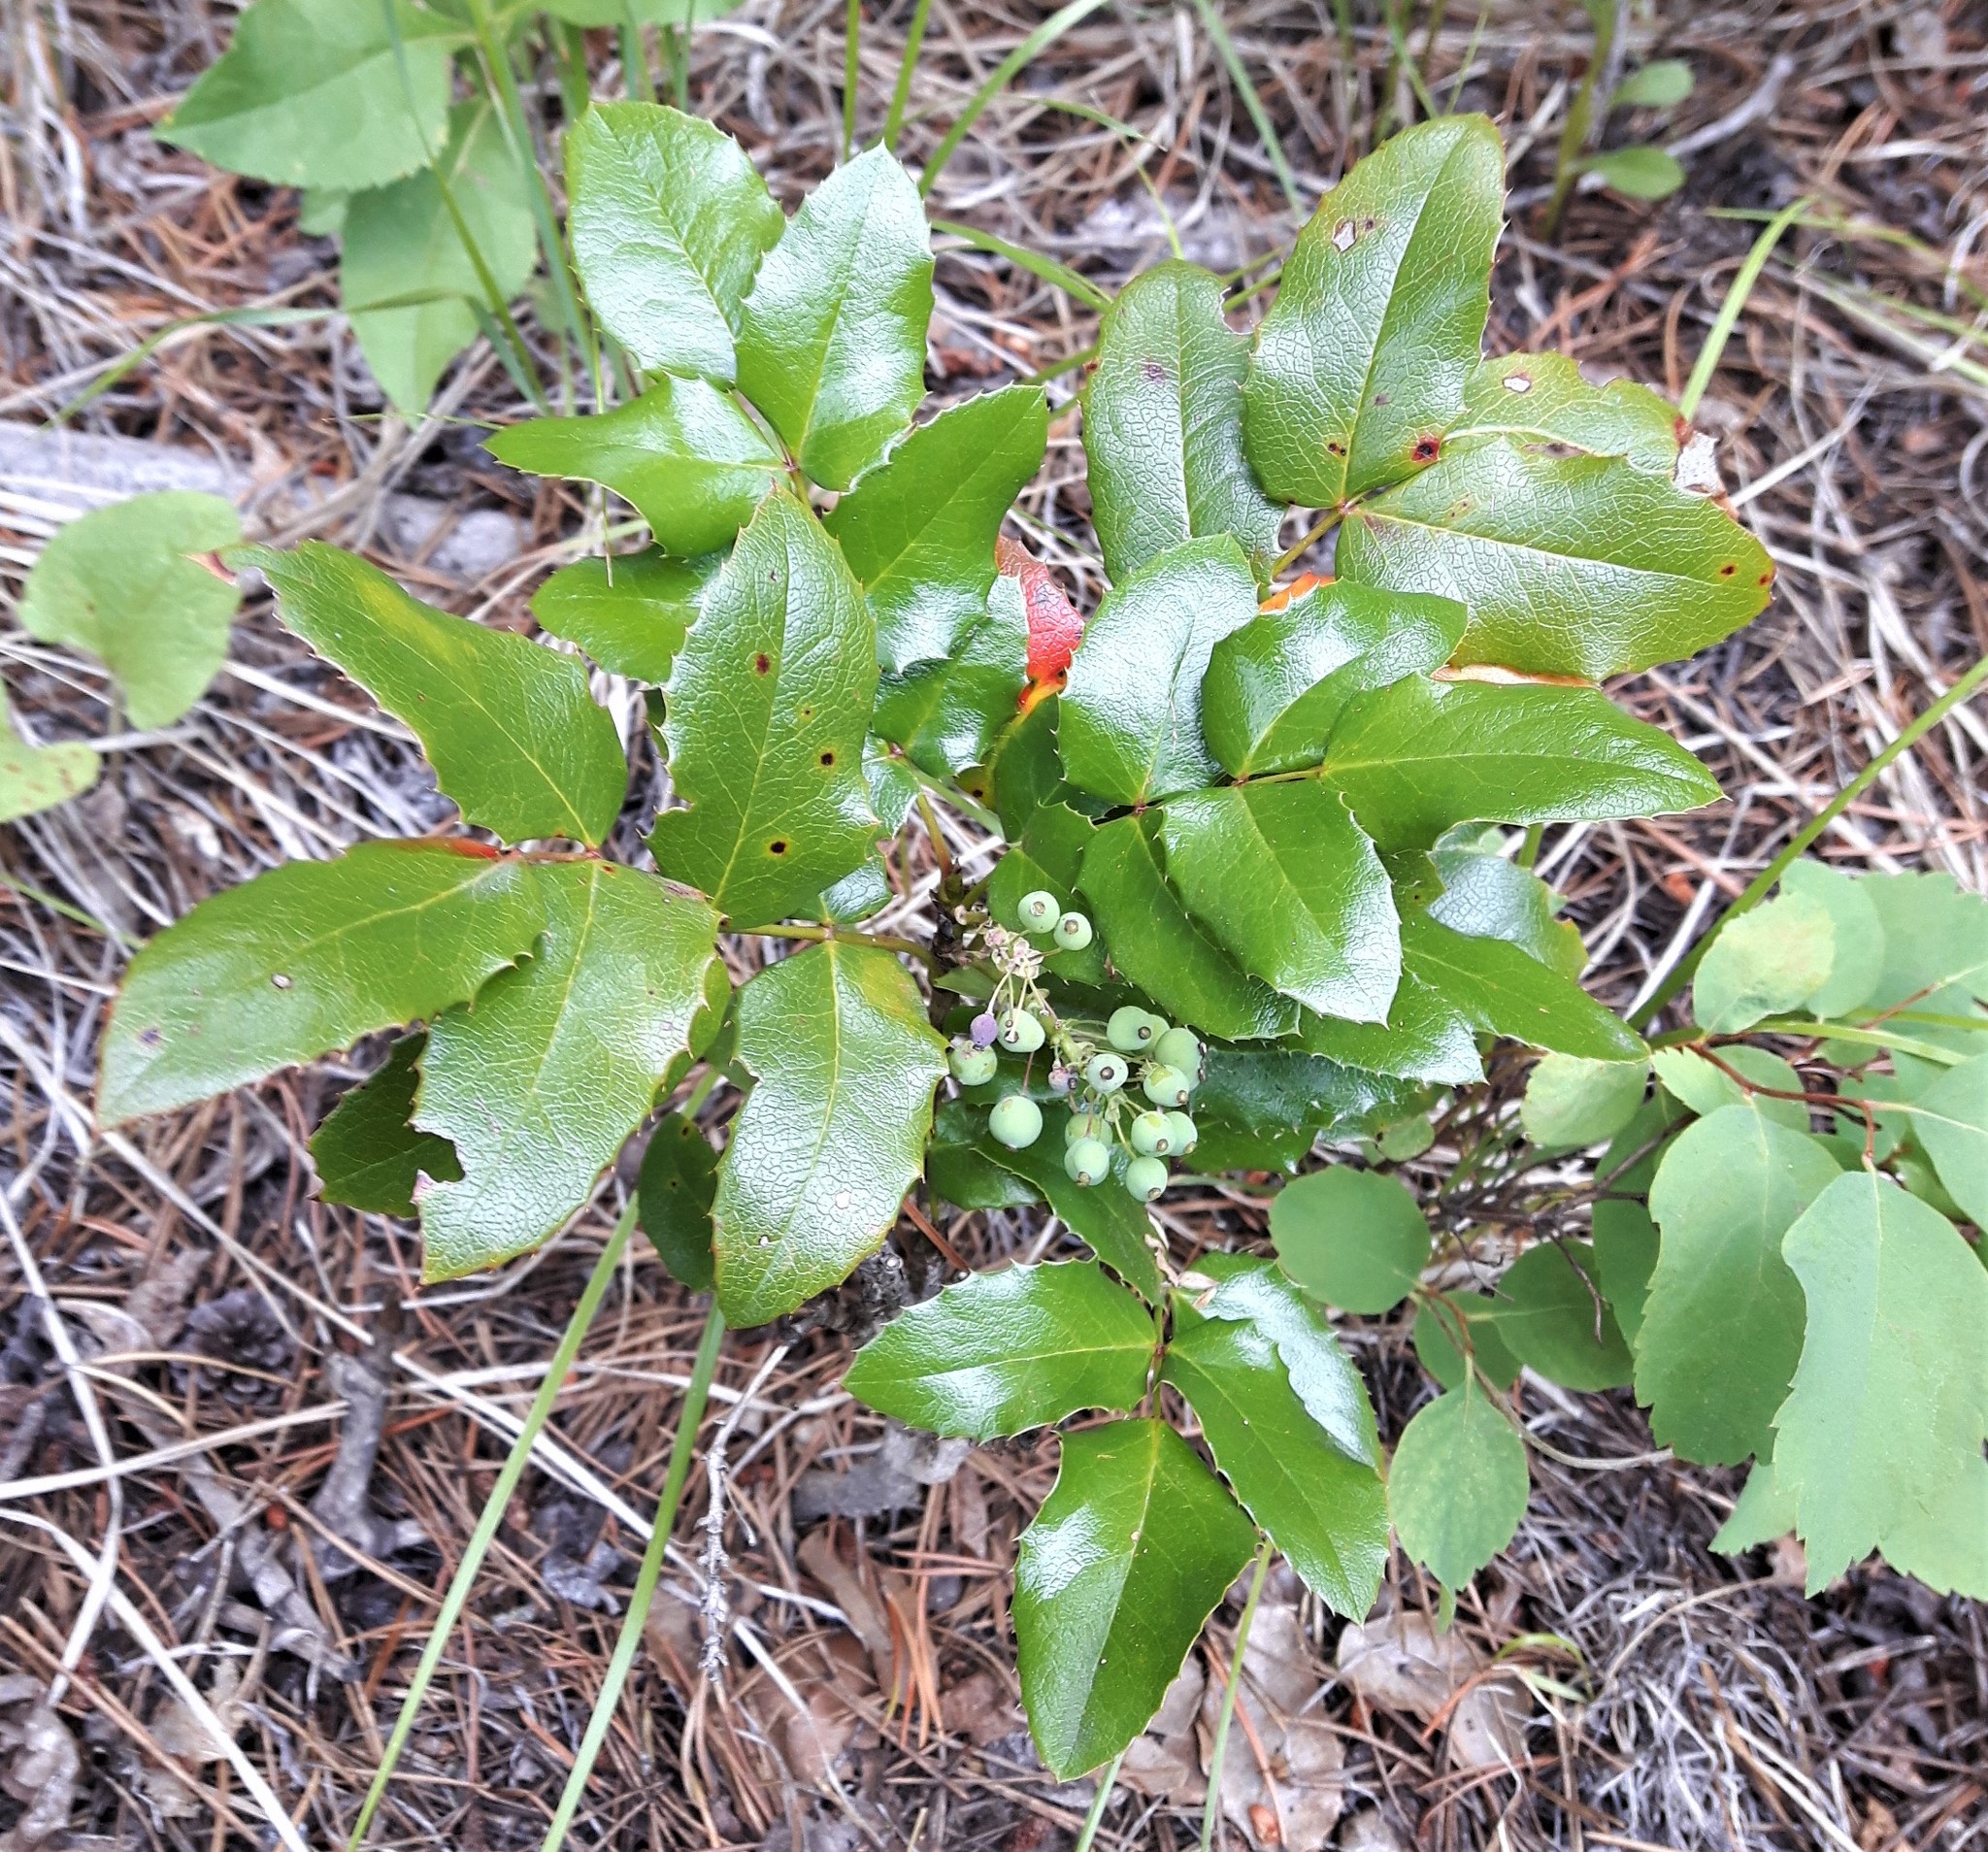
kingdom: Plantae
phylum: Tracheophyta
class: Magnoliopsida
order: Ranunculales
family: Berberidaceae
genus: Mahonia
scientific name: Mahonia repens
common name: Creeping oregon-grape
